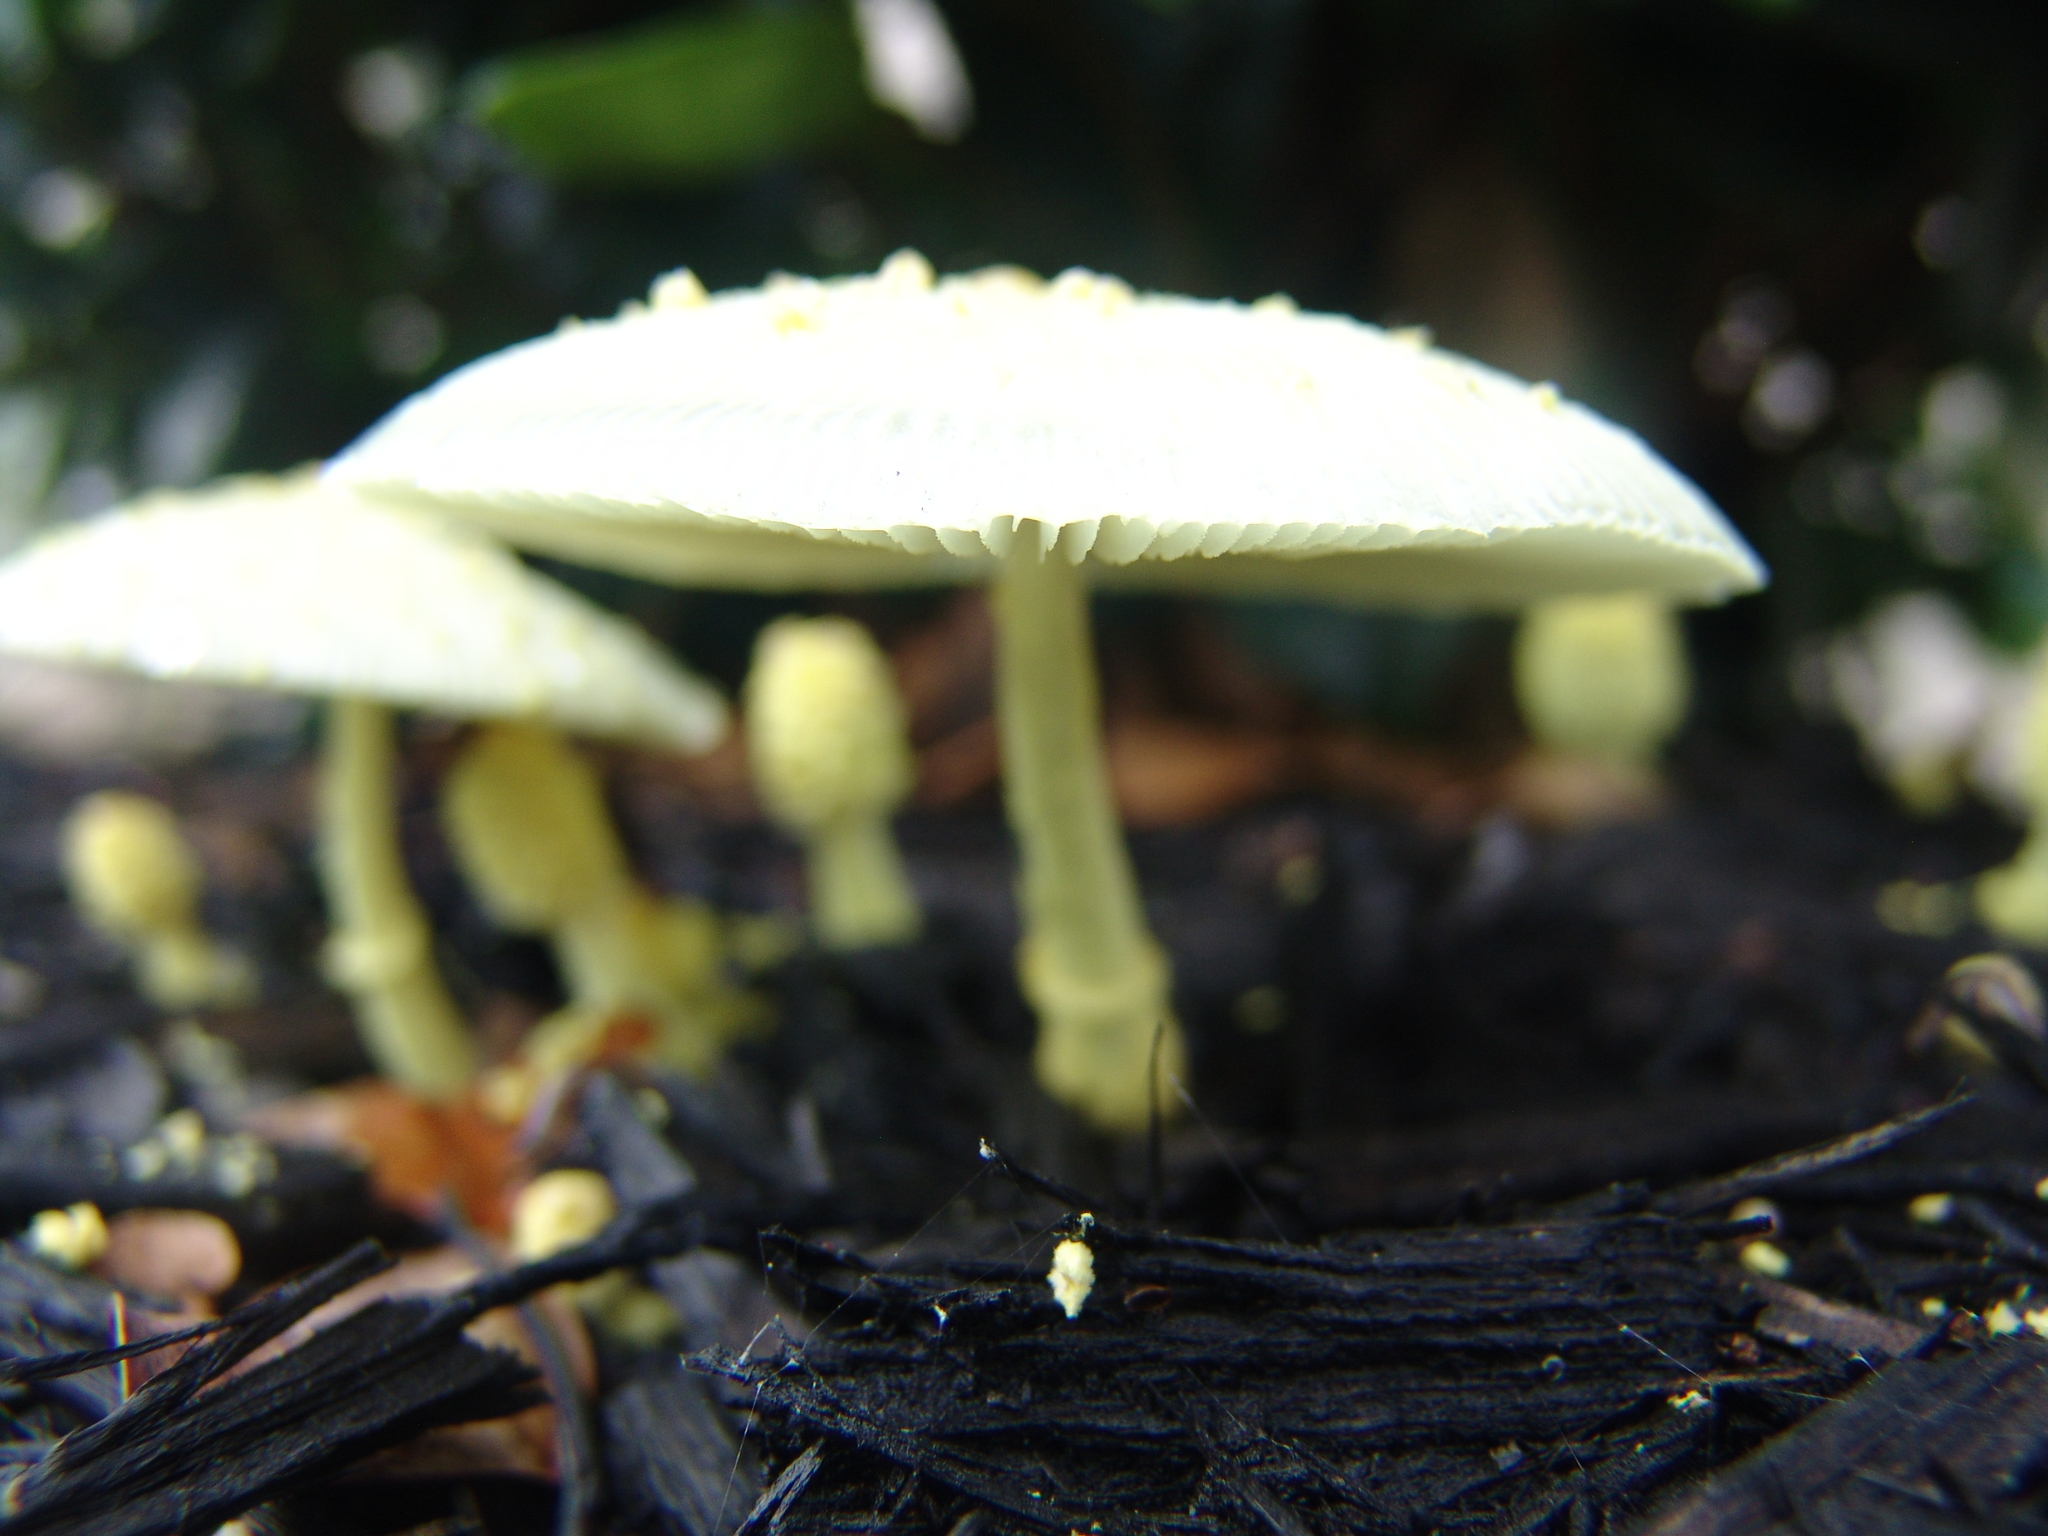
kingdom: Fungi
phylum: Basidiomycota
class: Agaricomycetes
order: Agaricales
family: Agaricaceae
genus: Leucocoprinus
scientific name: Leucocoprinus birnbaumii
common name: Plantpot dapperling
